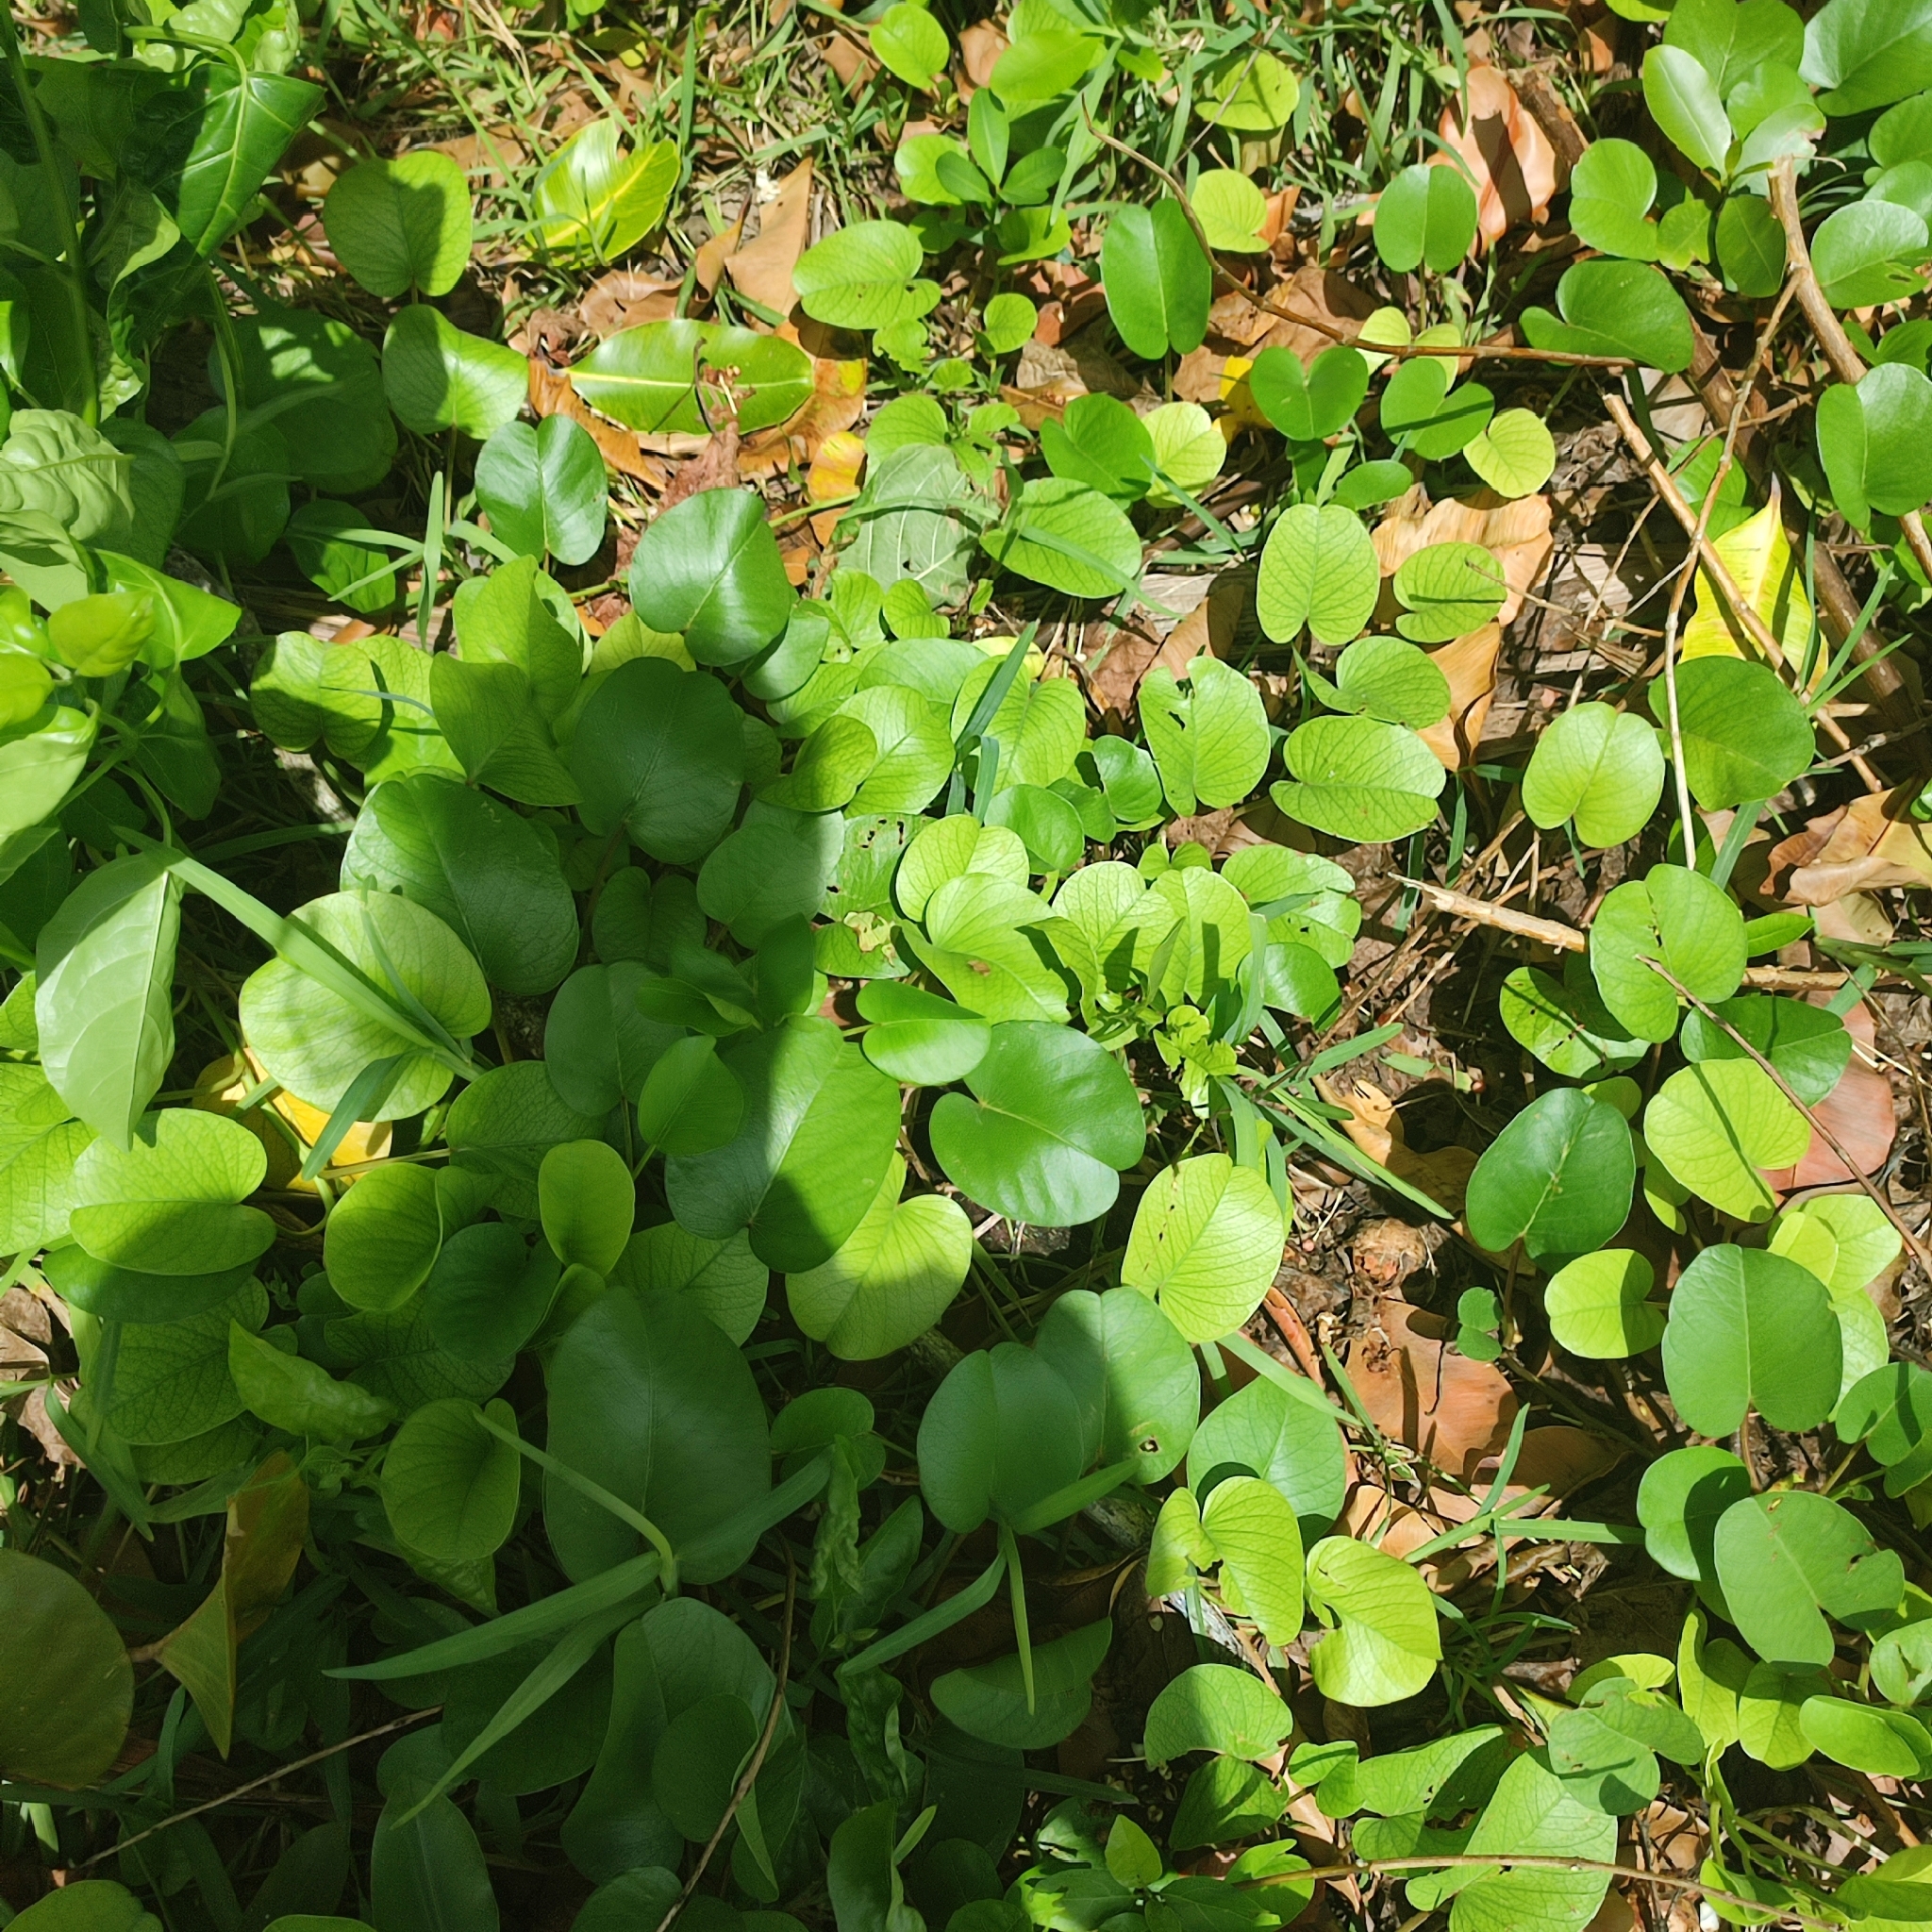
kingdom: Plantae
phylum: Tracheophyta
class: Magnoliopsida
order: Solanales
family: Convolvulaceae
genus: Ipomoea
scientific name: Ipomoea pes-caprae
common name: Beach morning glory
